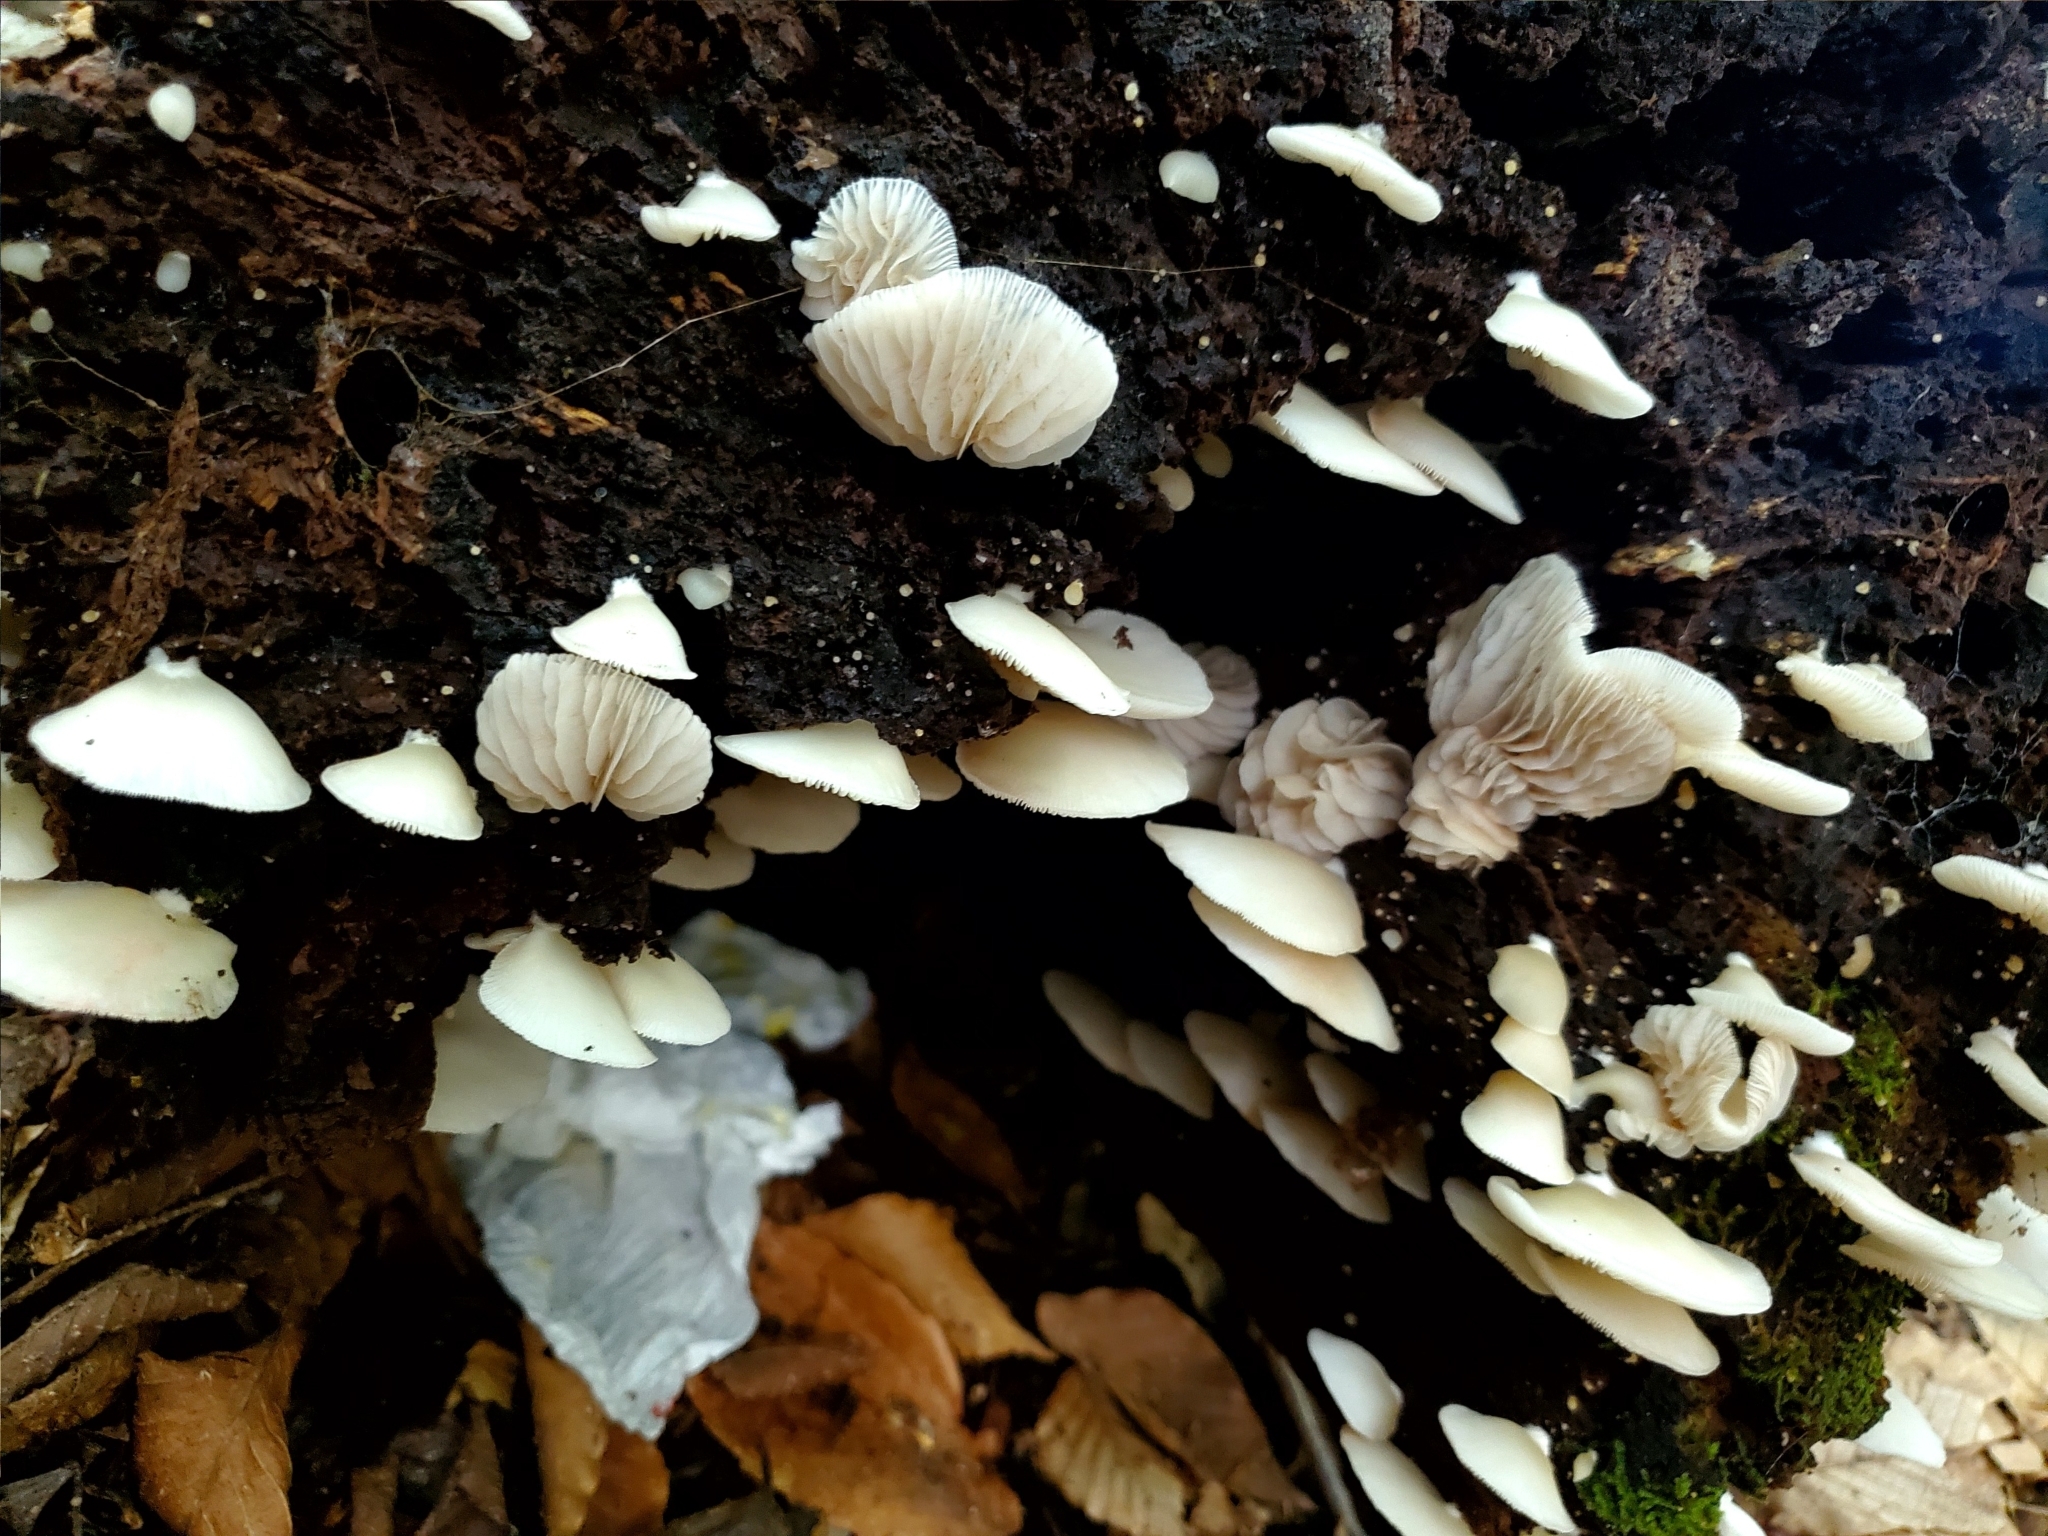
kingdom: Fungi
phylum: Basidiomycota
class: Agaricomycetes
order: Agaricales
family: Crepidotaceae
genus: Crepidotus
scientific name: Crepidotus applanatus
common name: Flat crep
